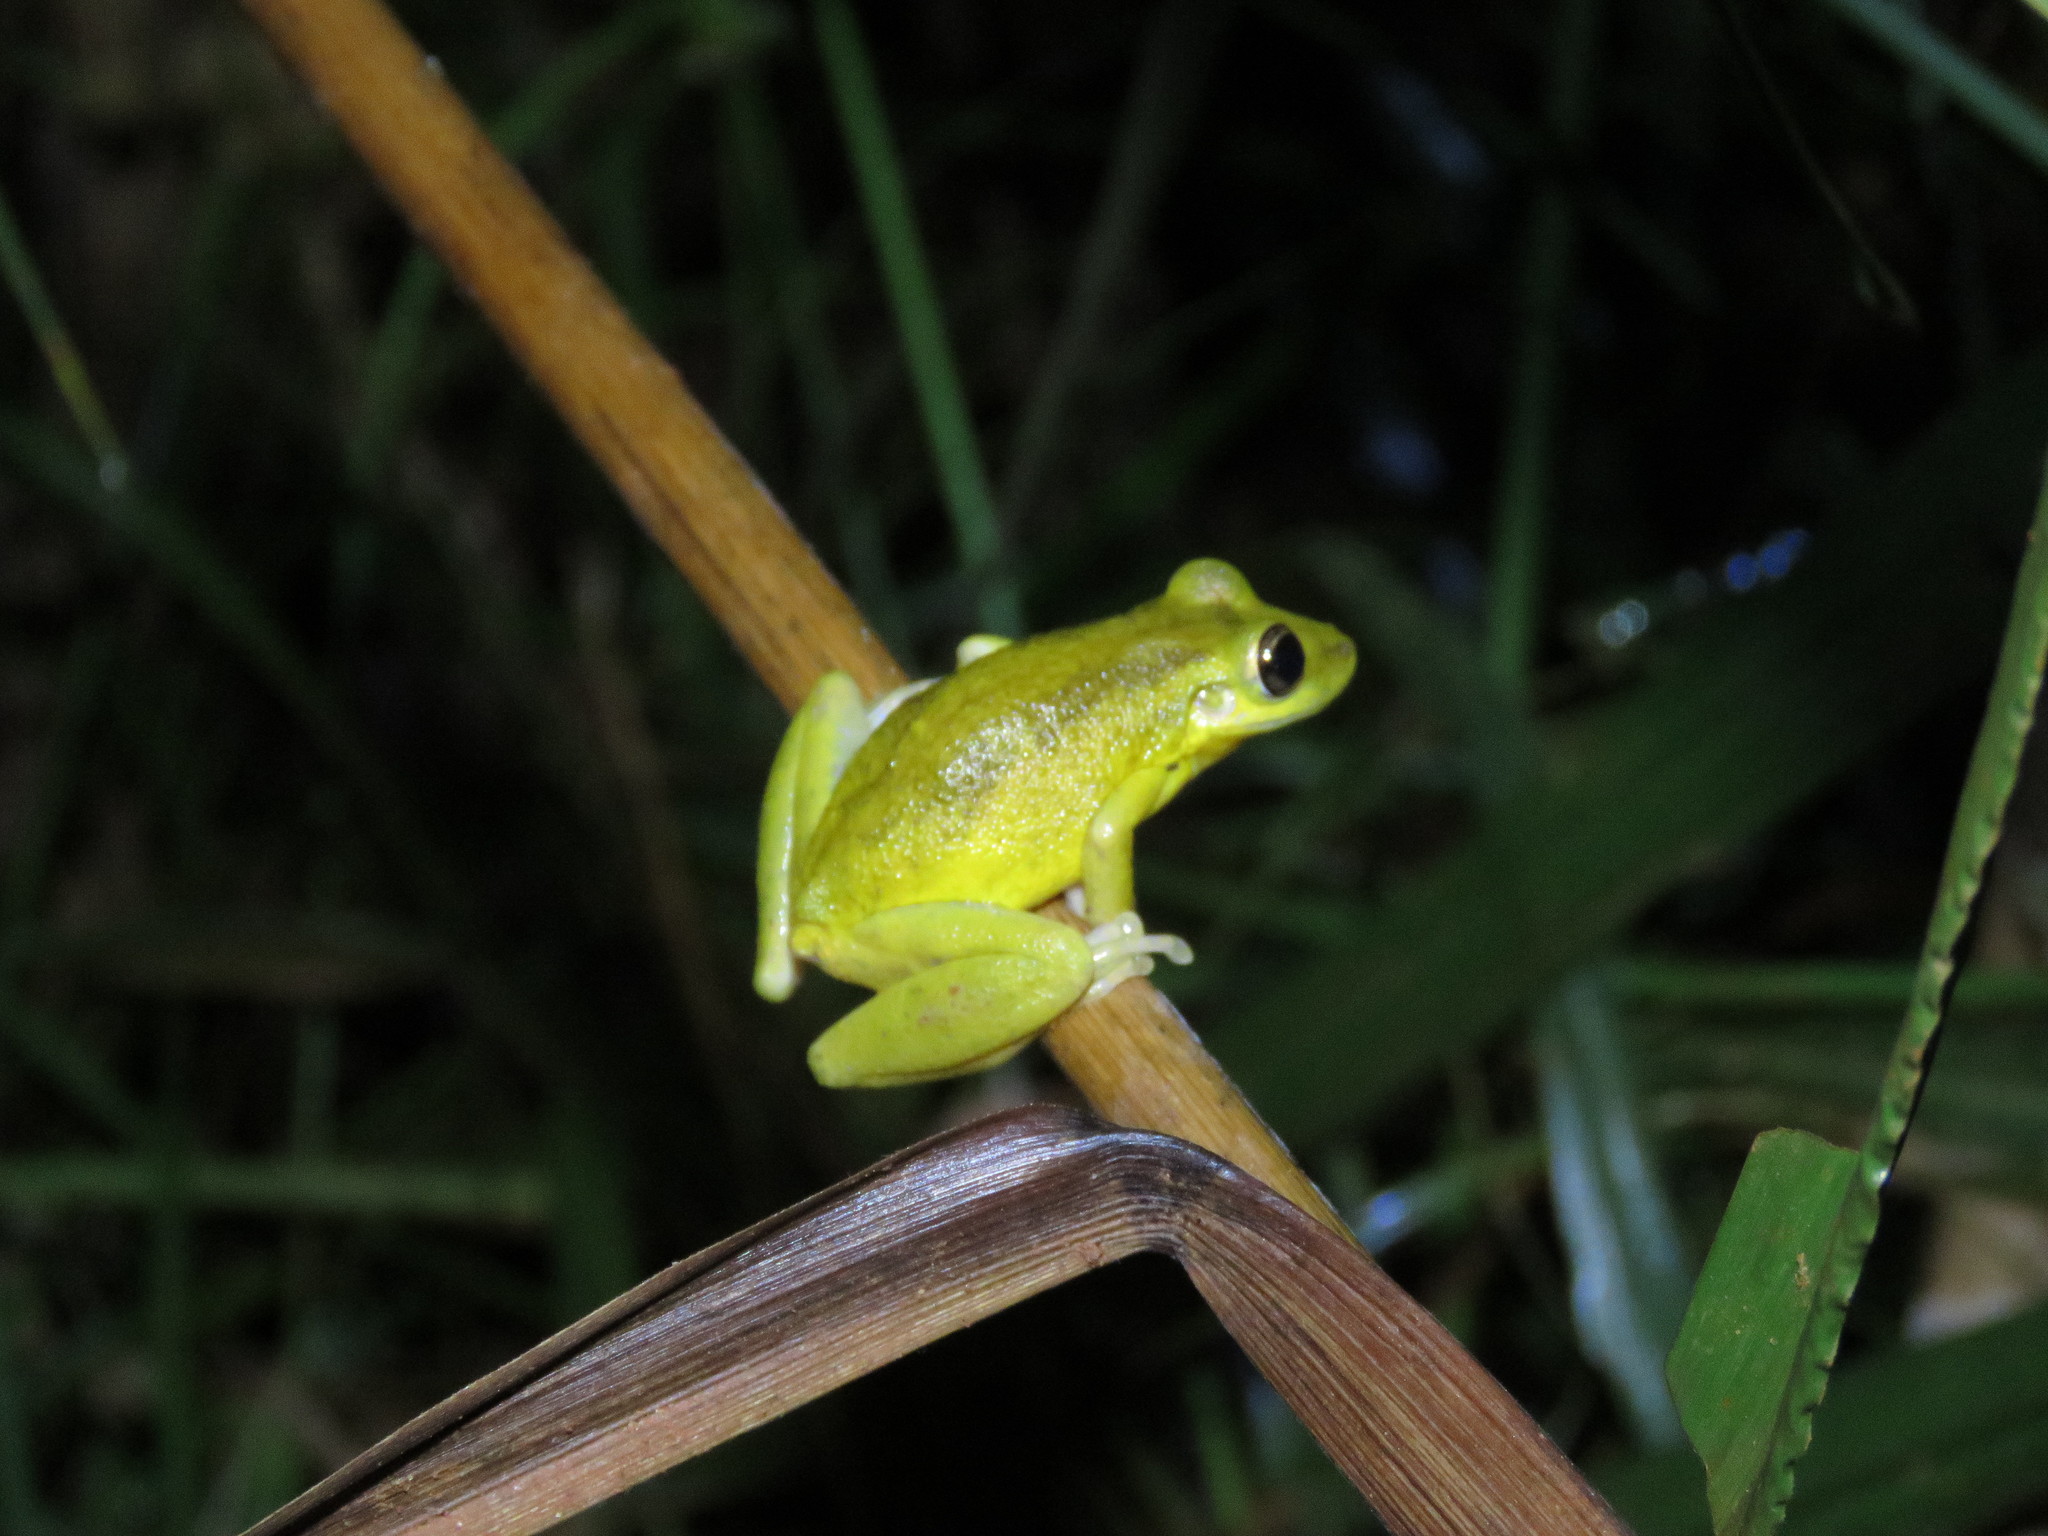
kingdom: Animalia
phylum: Chordata
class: Amphibia
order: Anura
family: Hylidae
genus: Scinax
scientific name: Scinax ruber
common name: Red snouted treefrog
